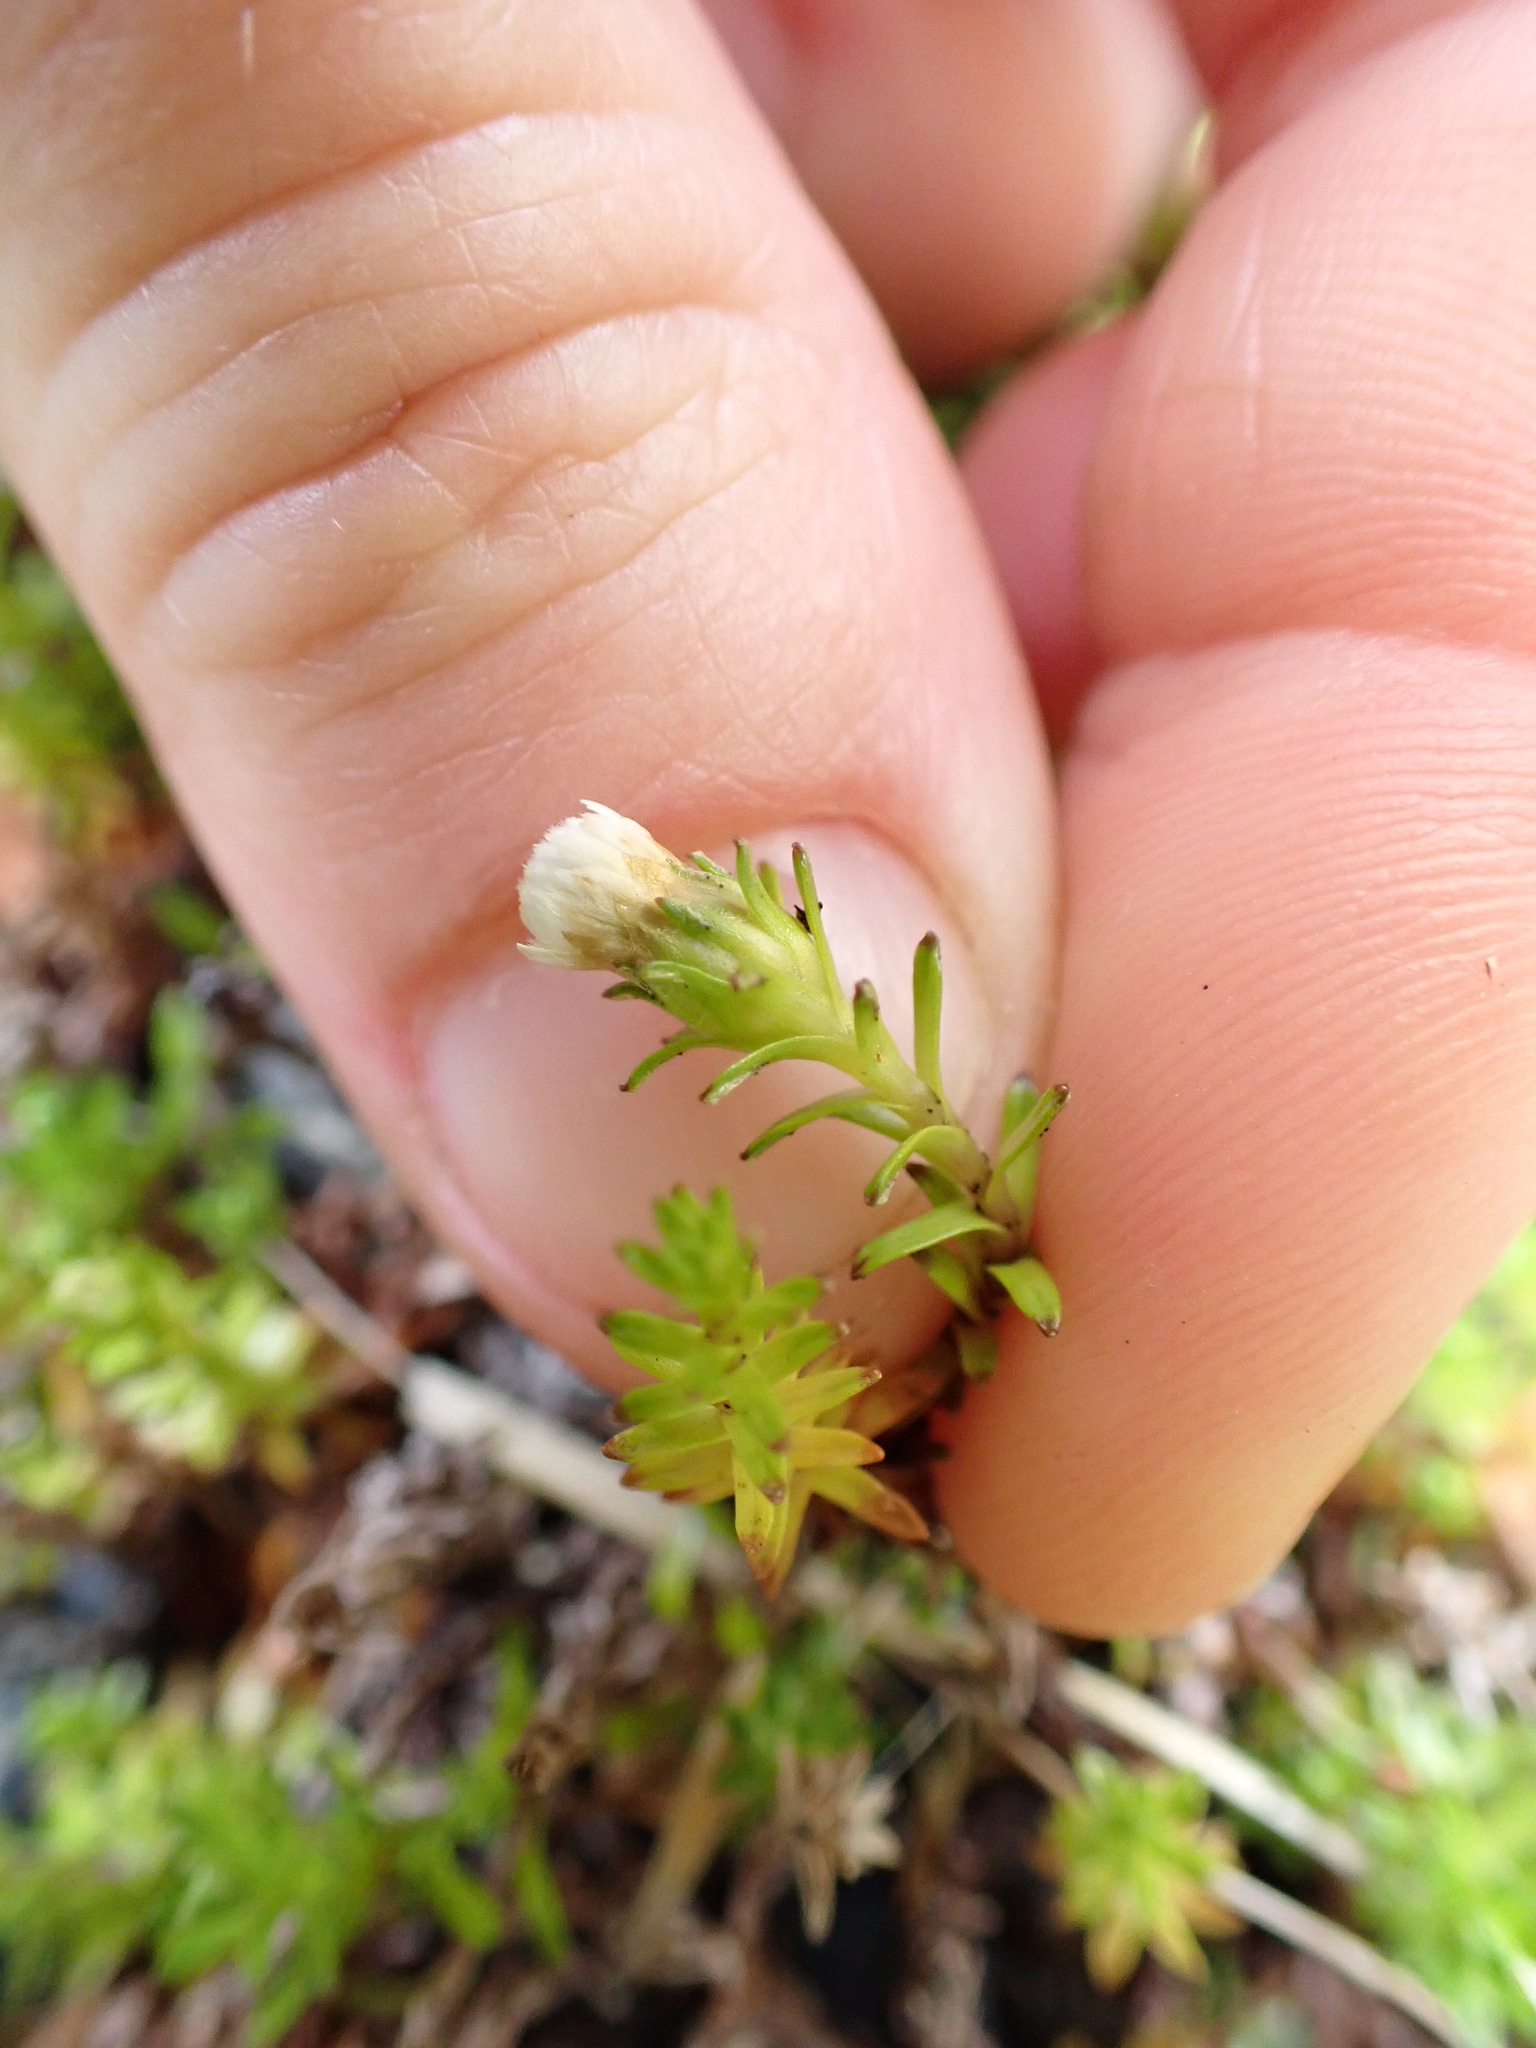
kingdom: Plantae
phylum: Tracheophyta
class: Magnoliopsida
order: Asterales
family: Asteraceae
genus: Raoulia
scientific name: Raoulia glabra
